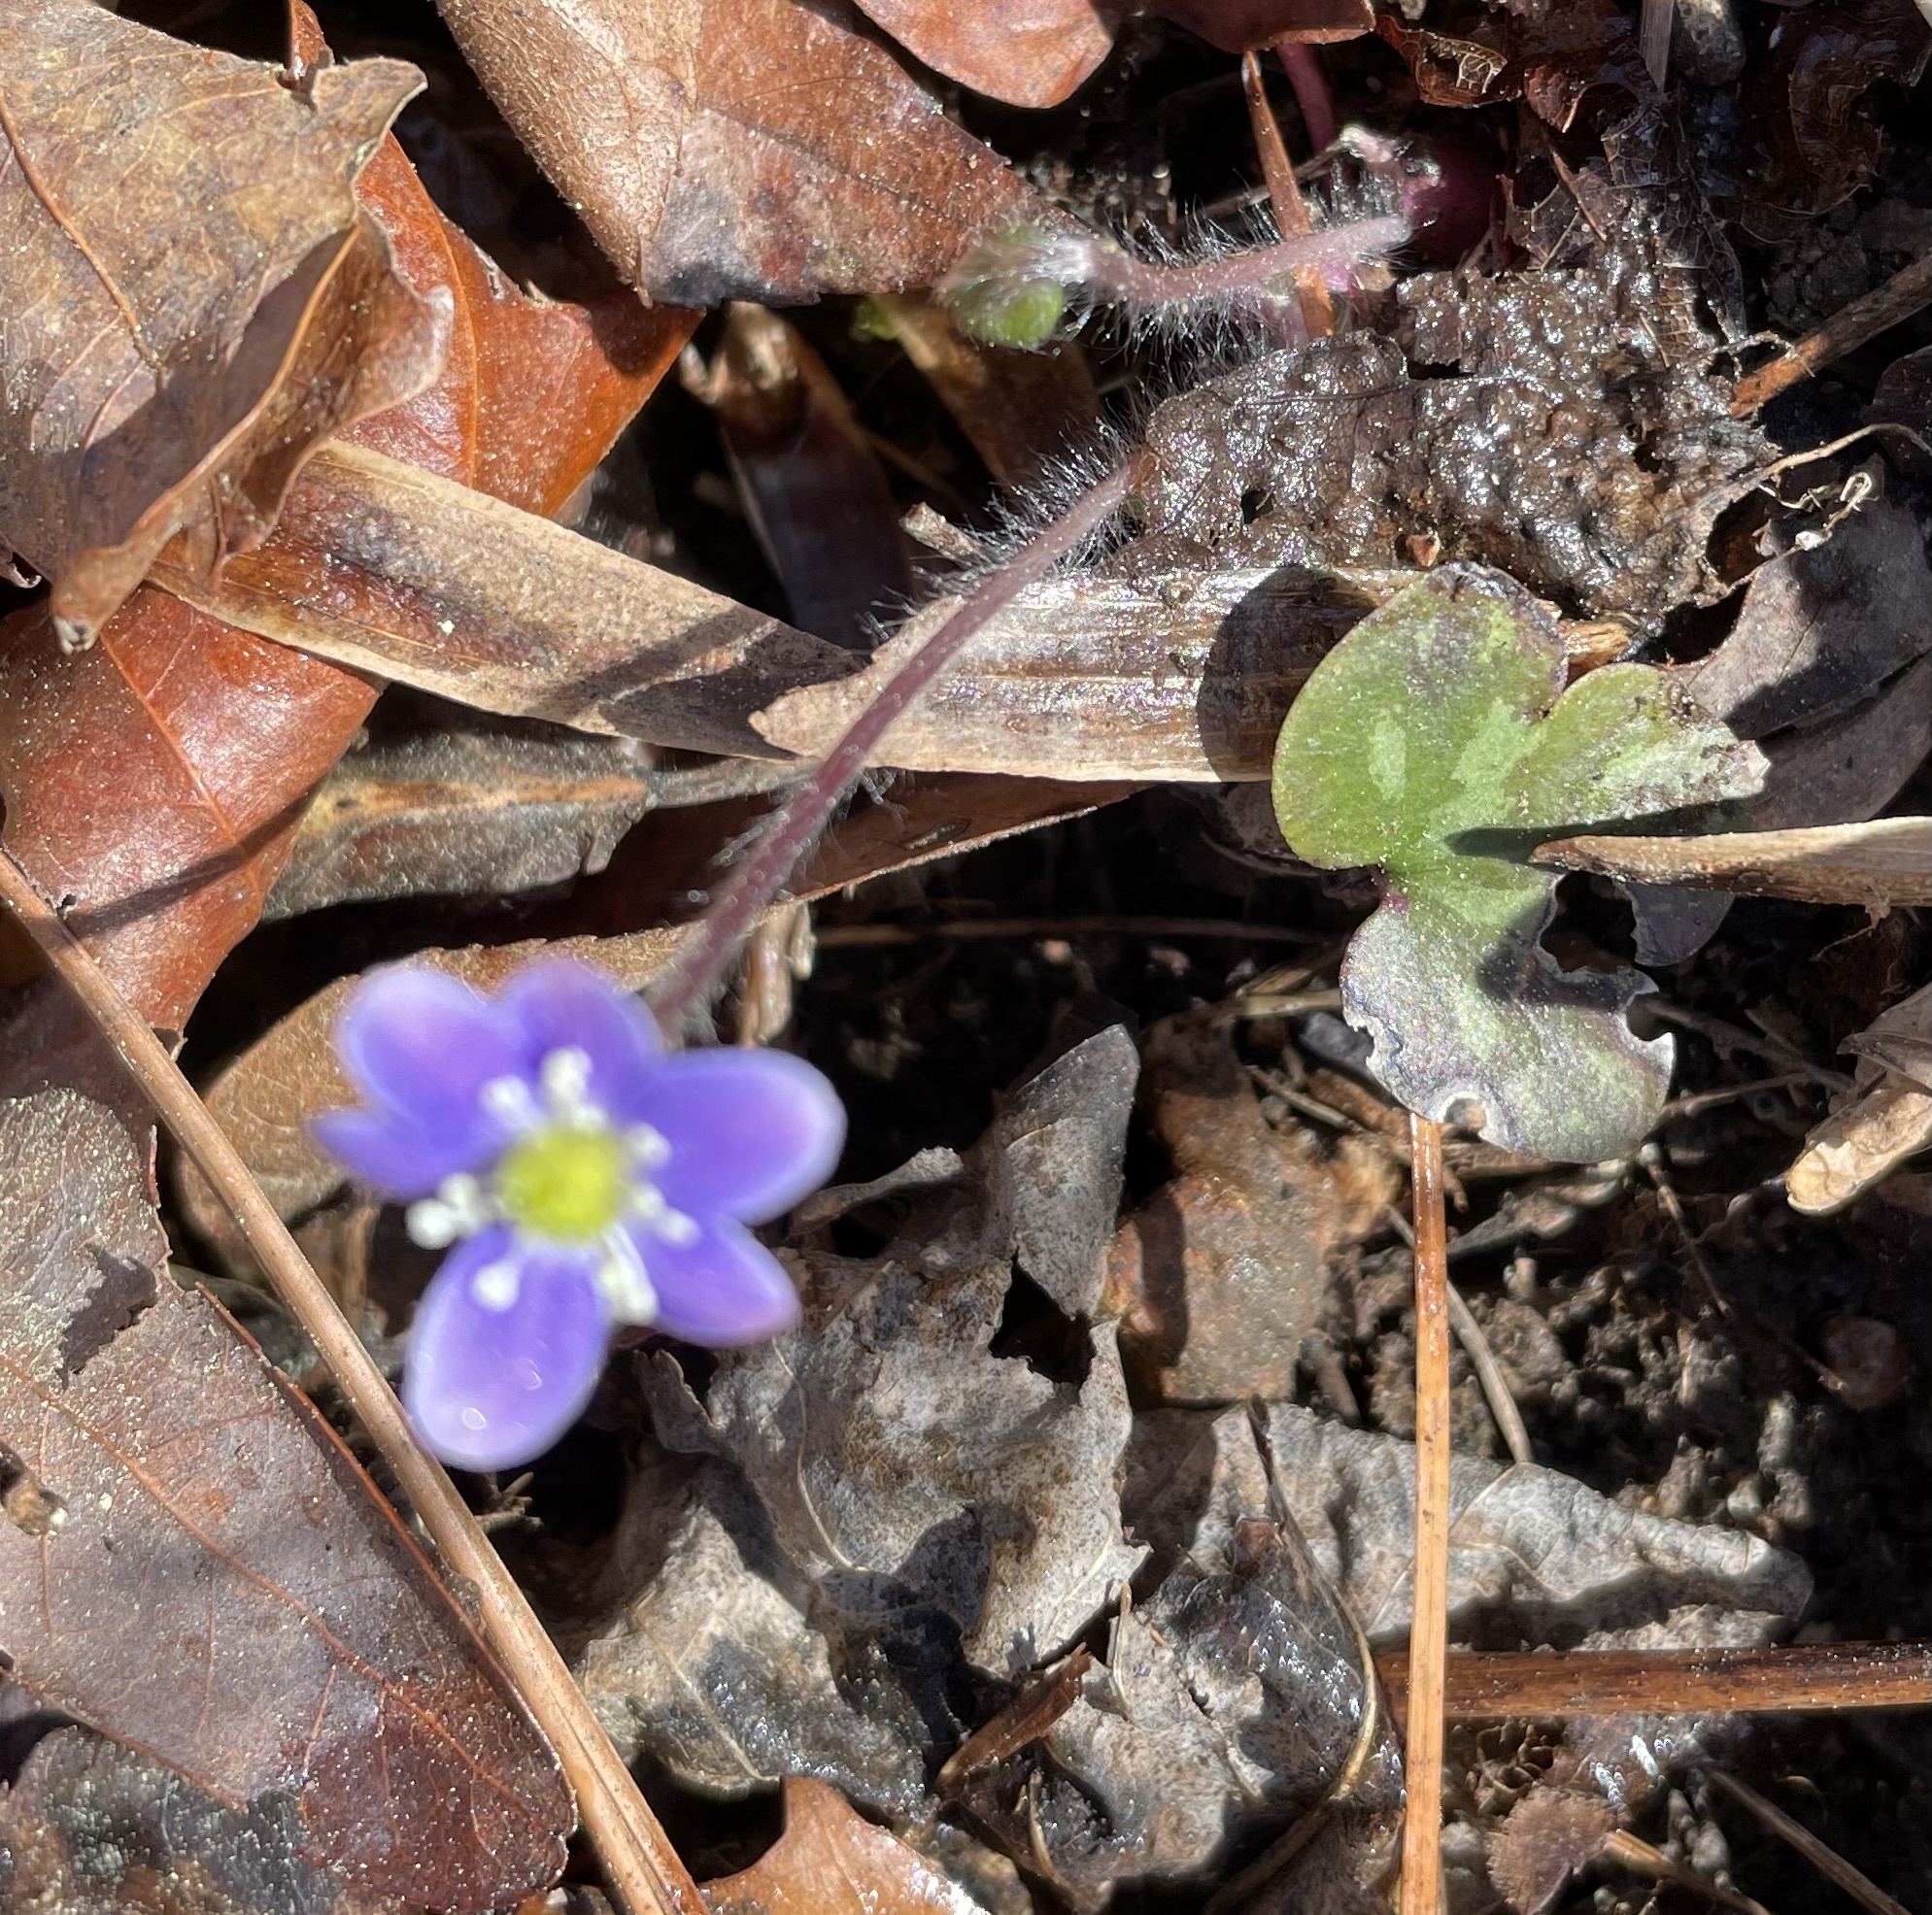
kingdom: Plantae
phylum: Tracheophyta
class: Magnoliopsida
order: Ranunculales
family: Ranunculaceae
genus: Hepatica
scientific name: Hepatica americana
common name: American hepatica
